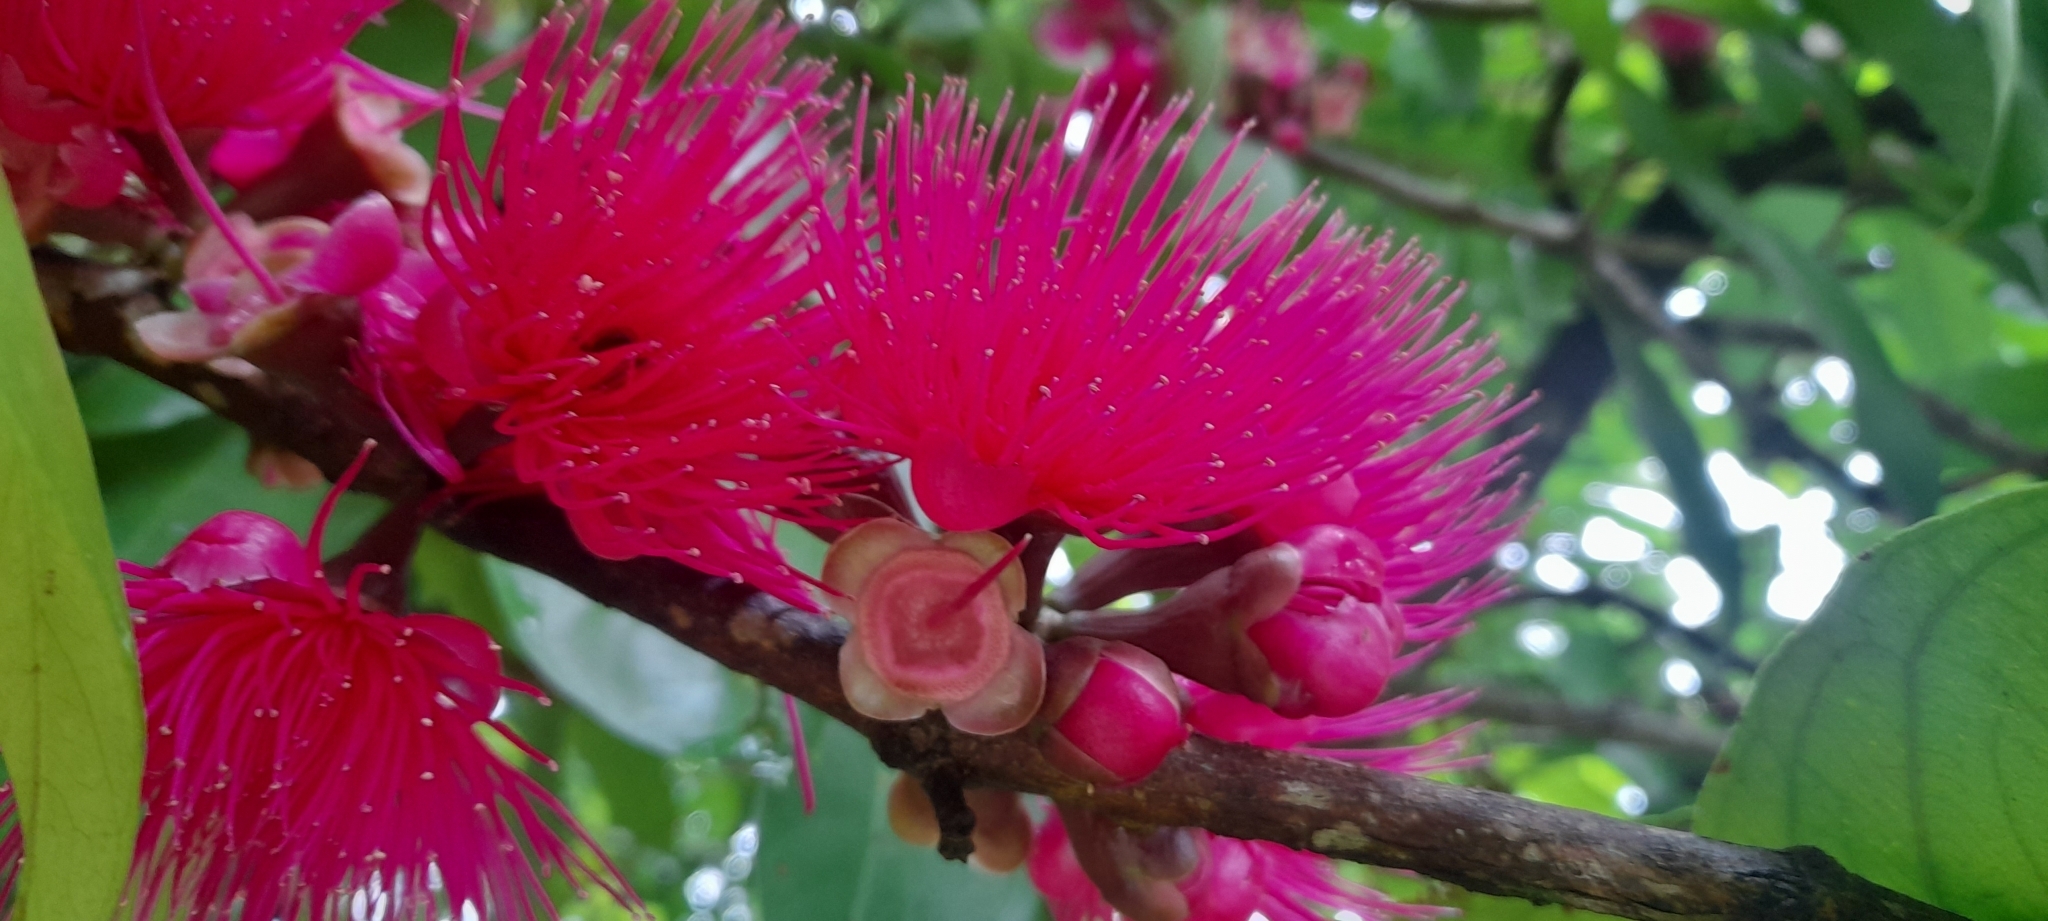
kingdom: Plantae
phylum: Tracheophyta
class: Magnoliopsida
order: Myrtales
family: Myrtaceae
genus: Syzygium
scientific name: Syzygium malaccense
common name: Malaysian apple
